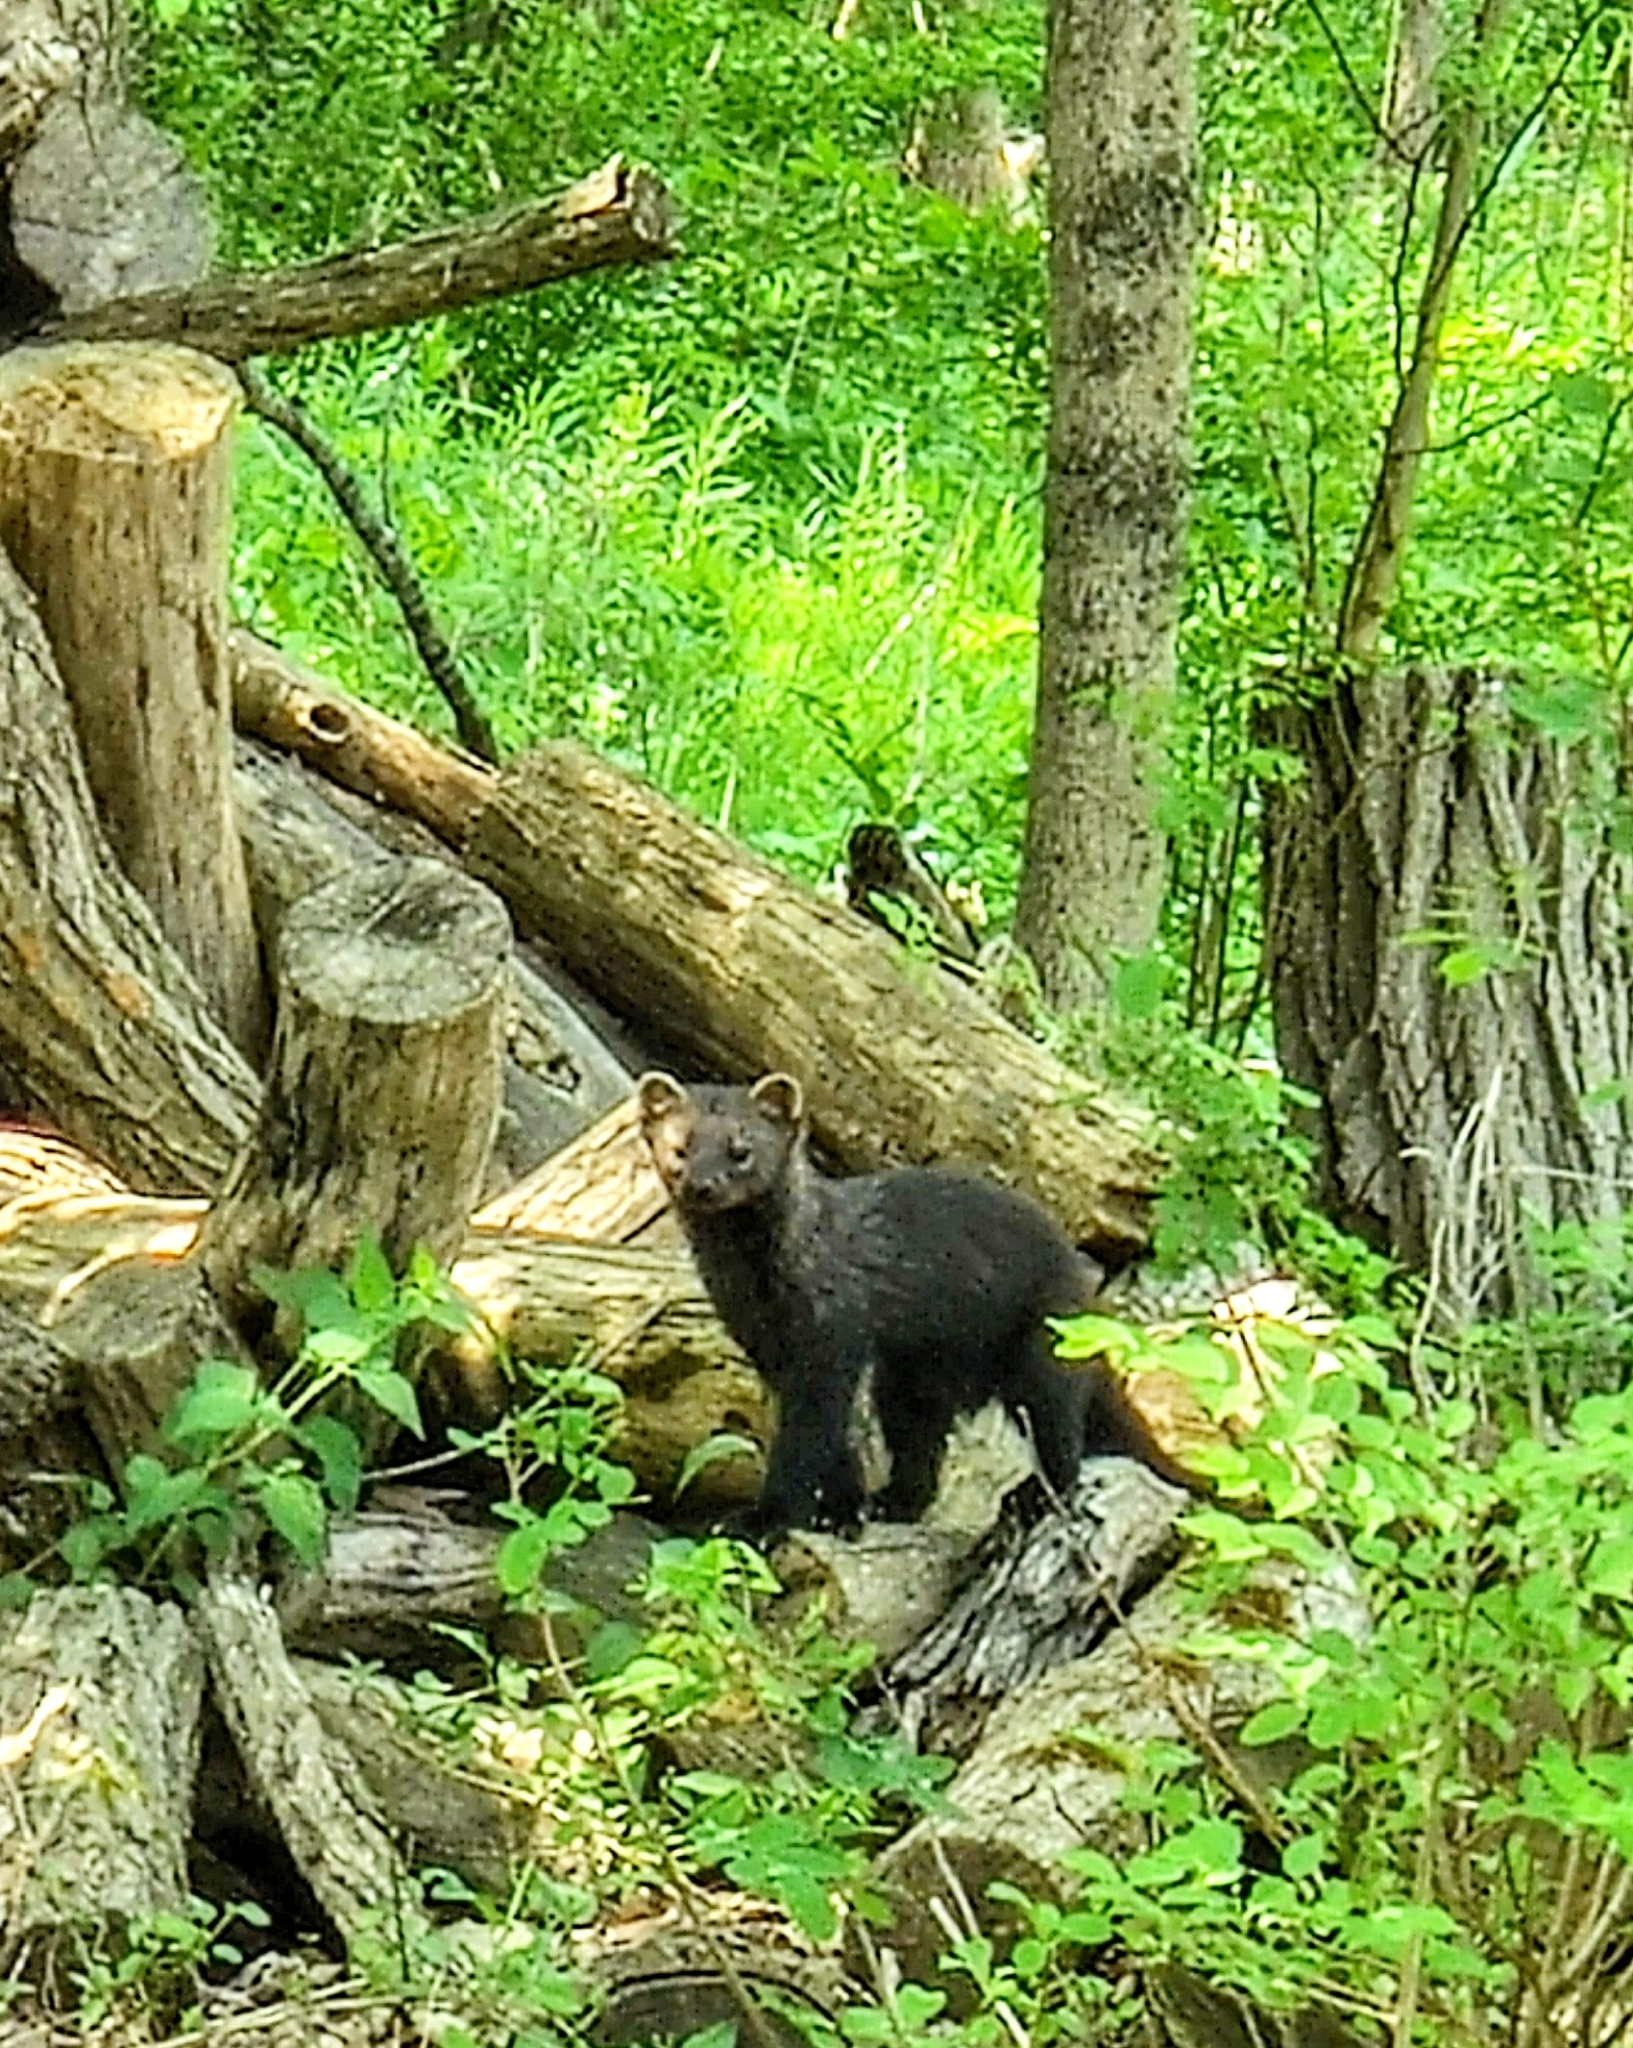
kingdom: Animalia
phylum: Chordata
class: Mammalia
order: Carnivora
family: Mustelidae
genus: Pekania
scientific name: Pekania pennanti
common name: Fisher
